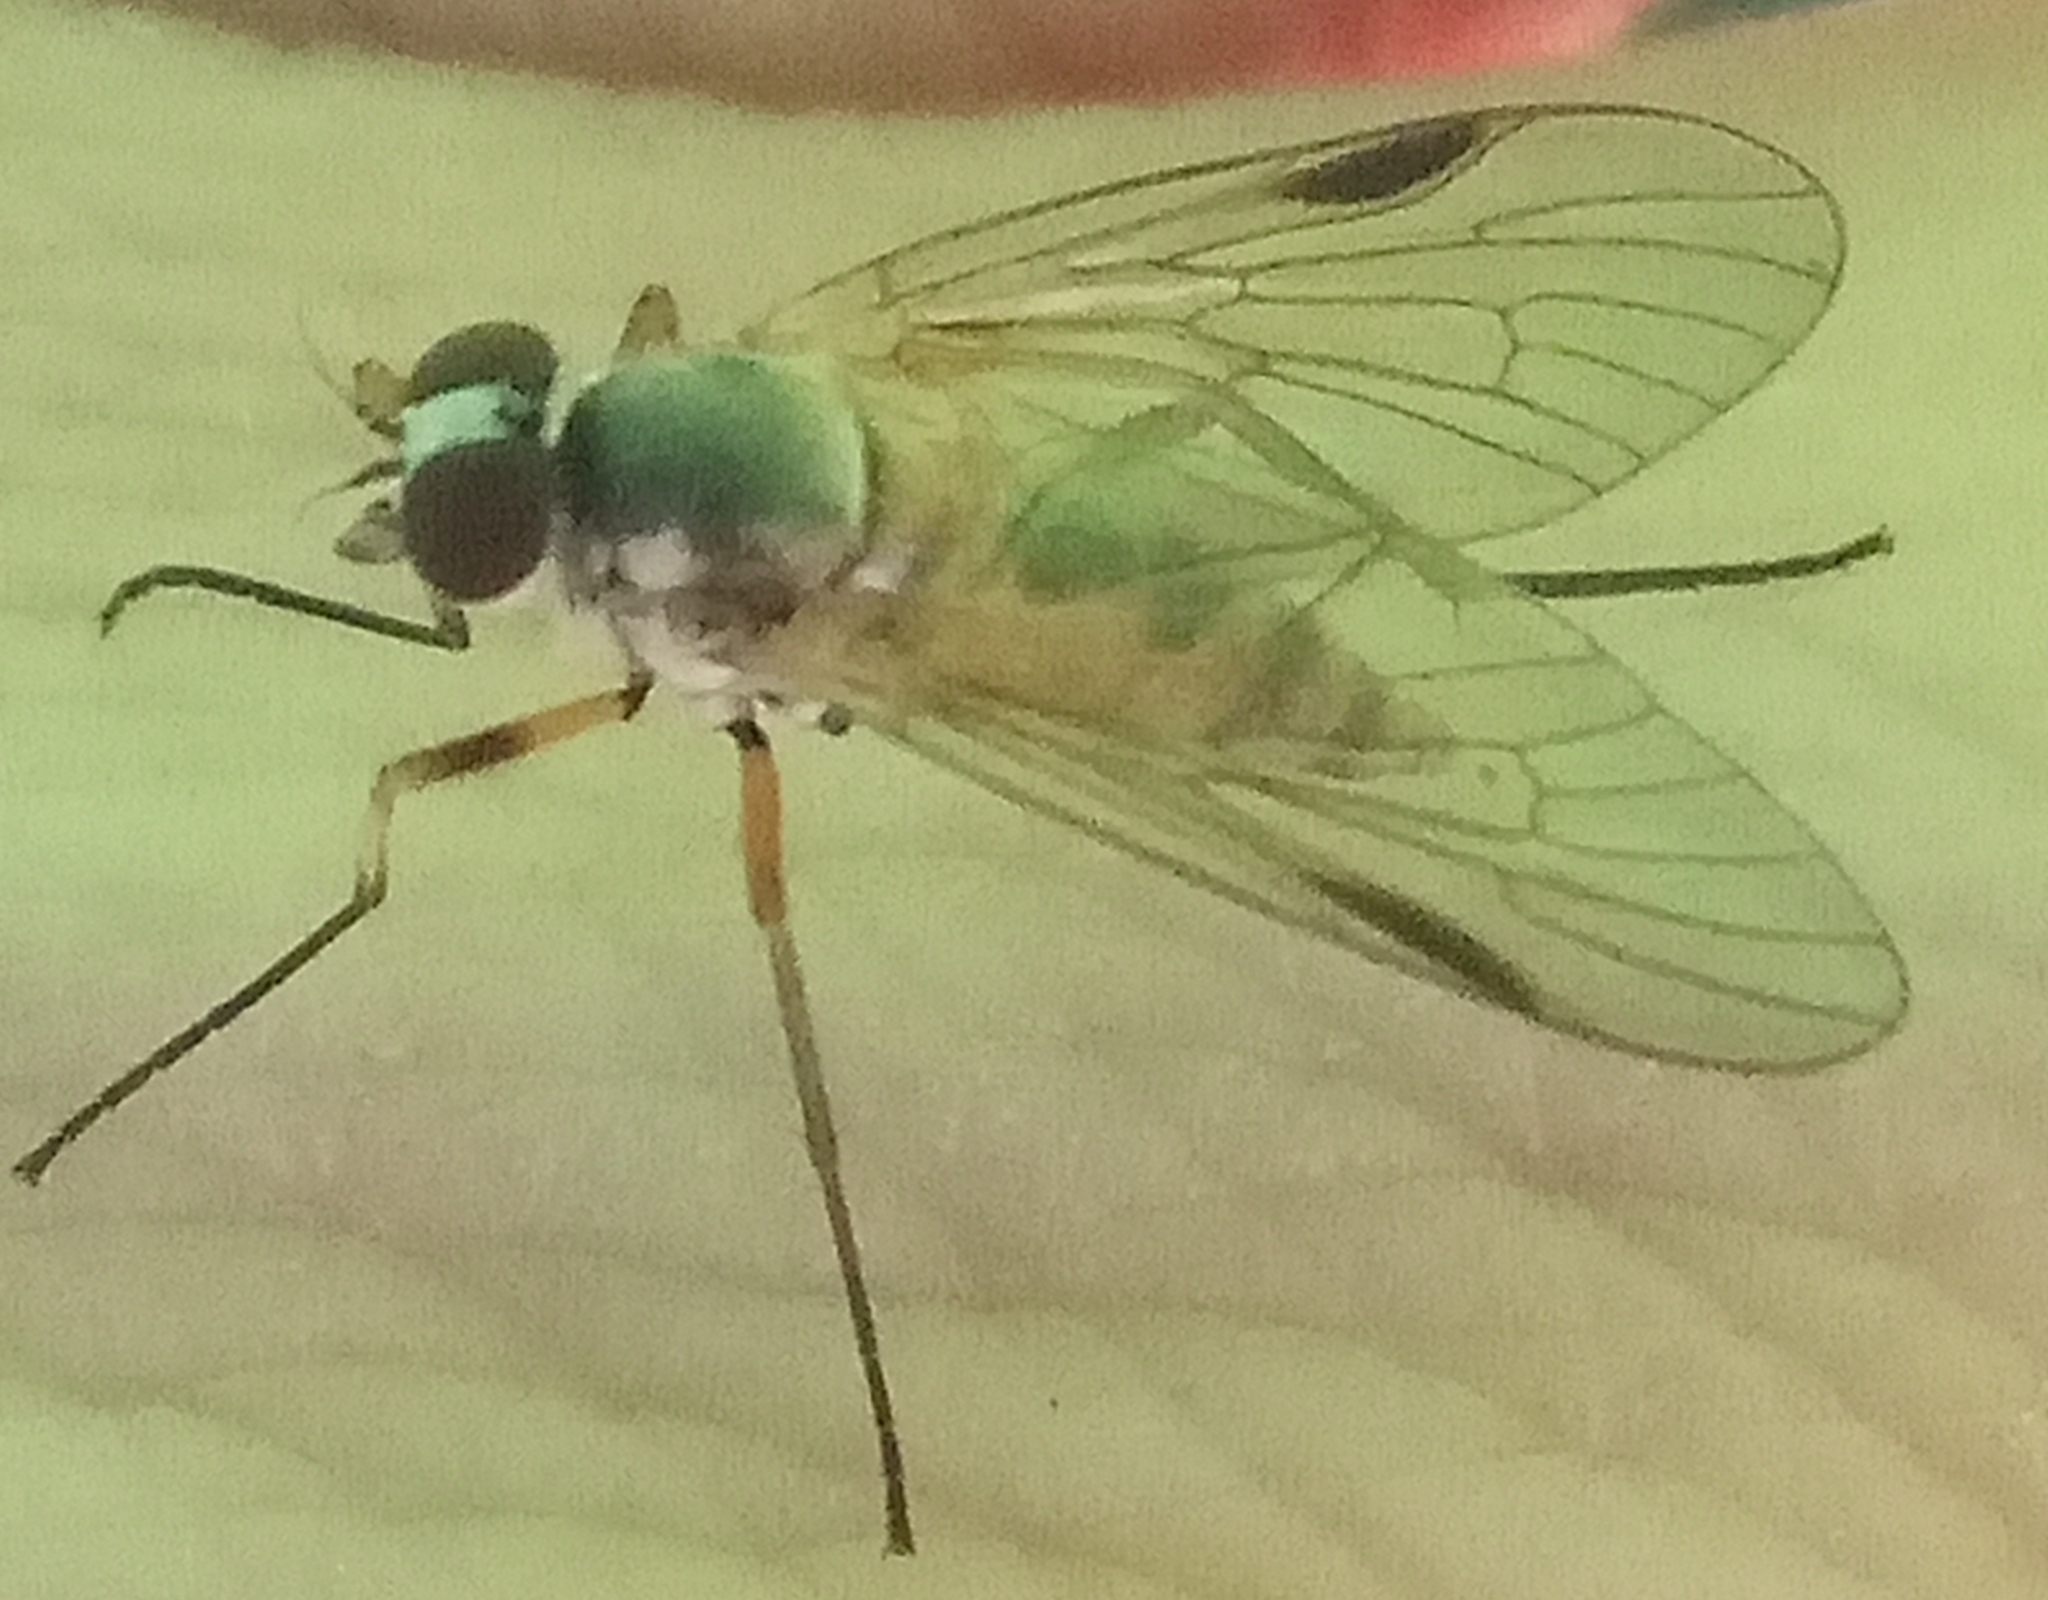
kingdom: Animalia
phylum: Arthropoda
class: Insecta
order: Diptera
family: Rhagionidae
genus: Rhagio
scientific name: Rhagio lineola
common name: Small fleck-winged snipefly
